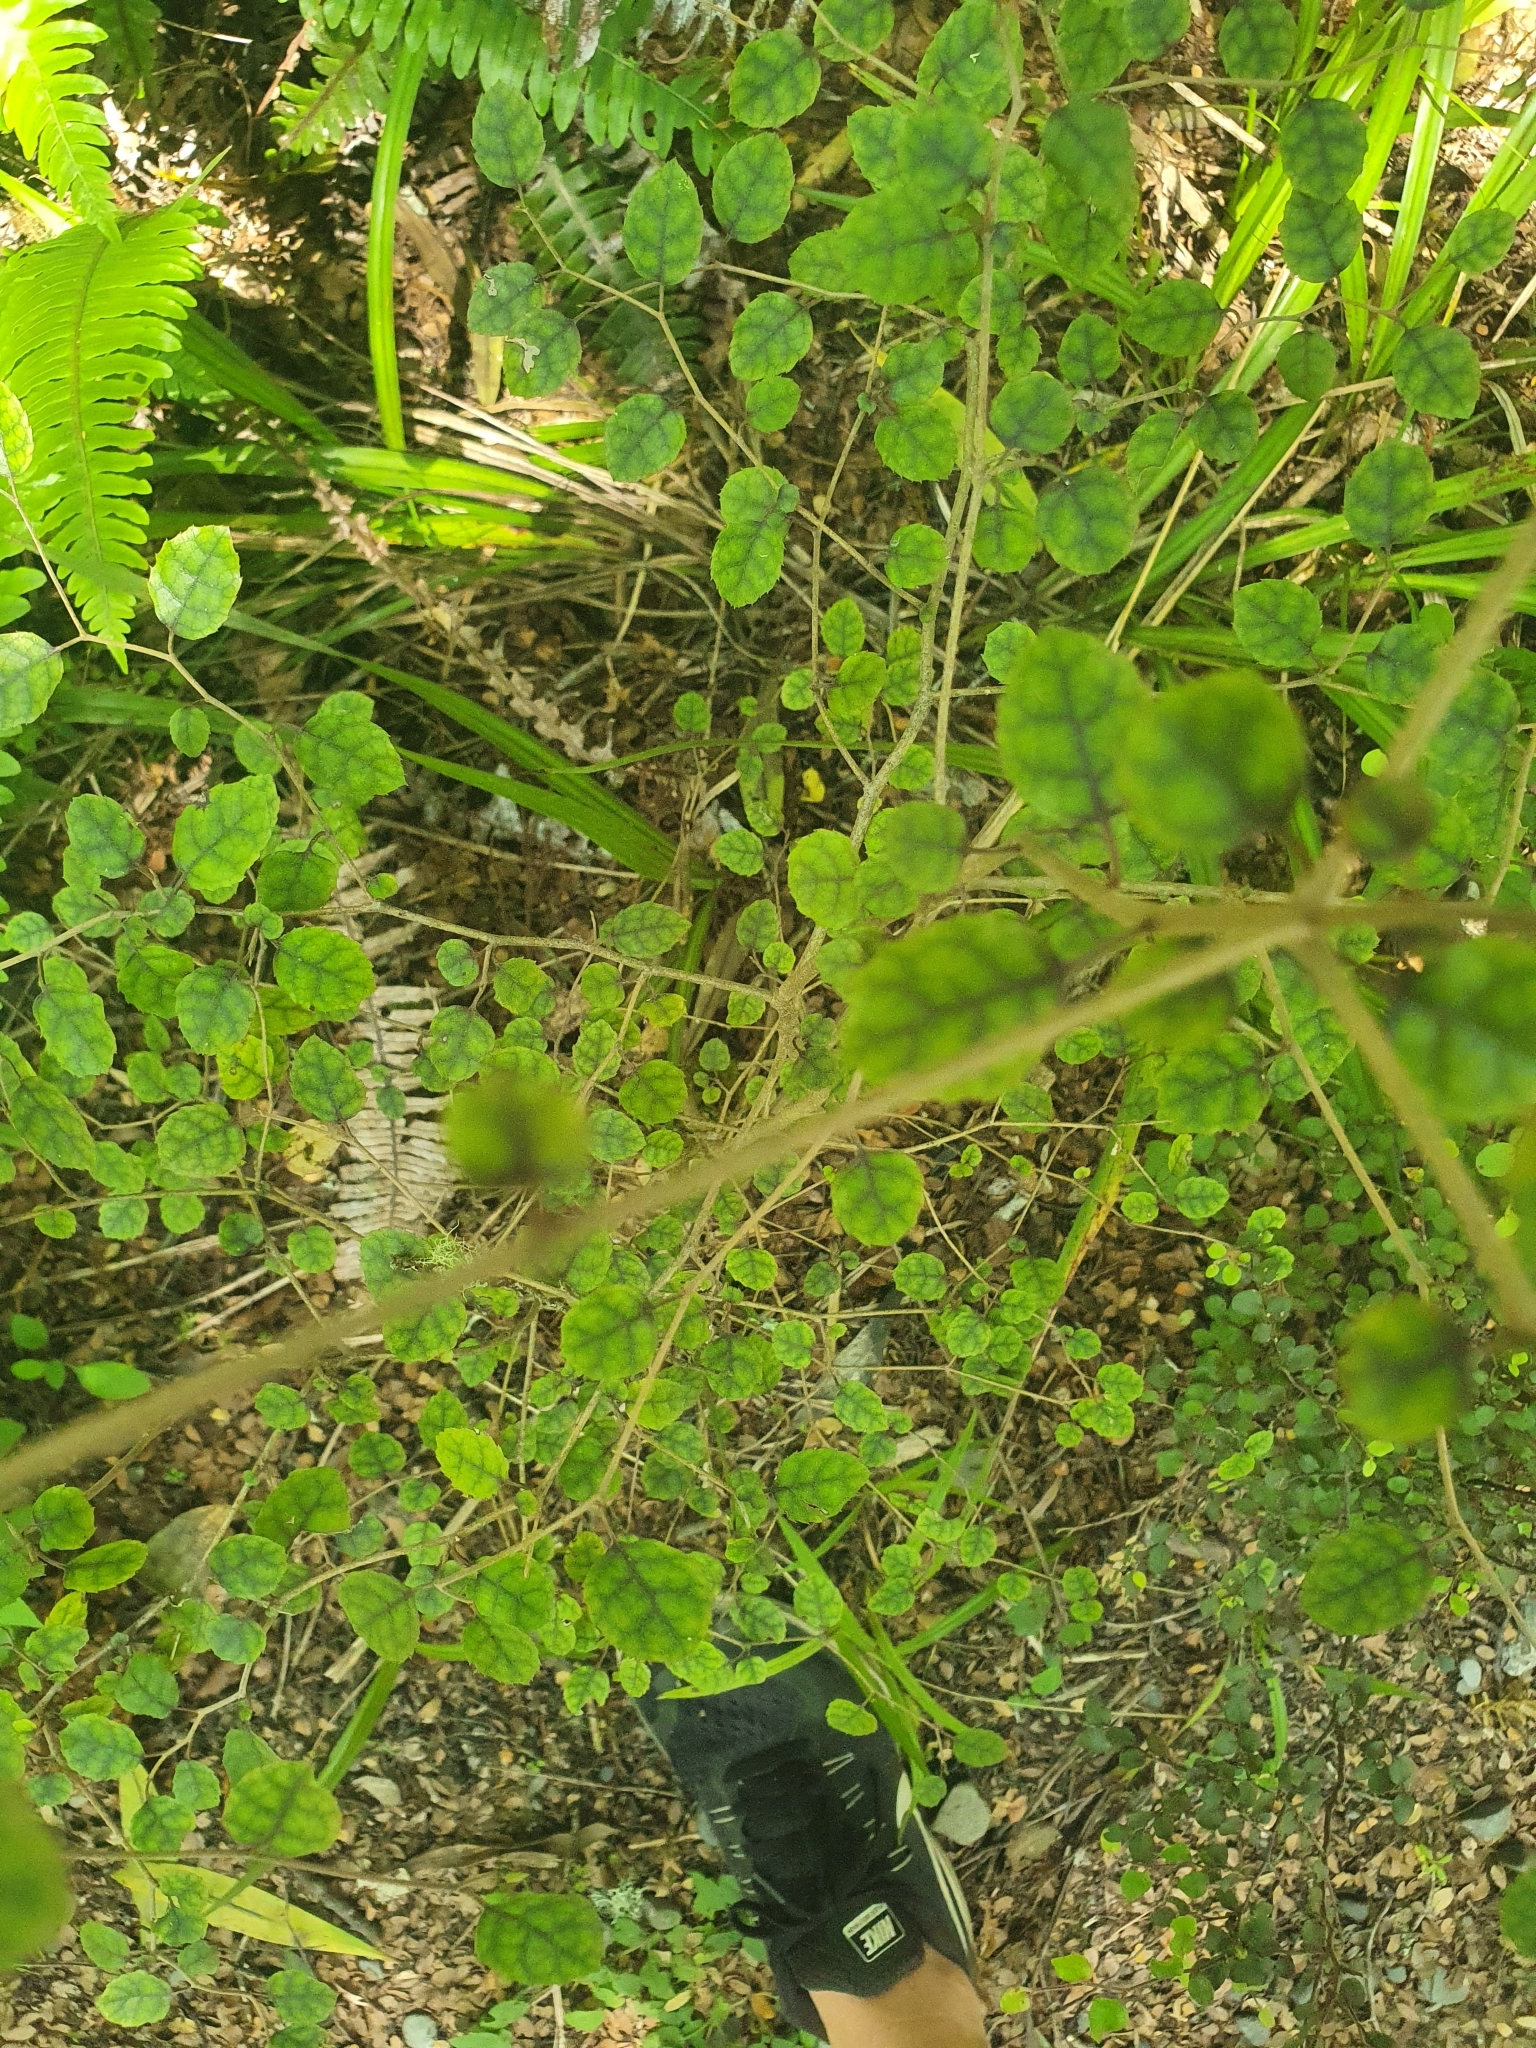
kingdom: Plantae
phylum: Tracheophyta
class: Magnoliopsida
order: Asterales
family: Rousseaceae
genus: Carpodetus
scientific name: Carpodetus serratus
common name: White mapau
